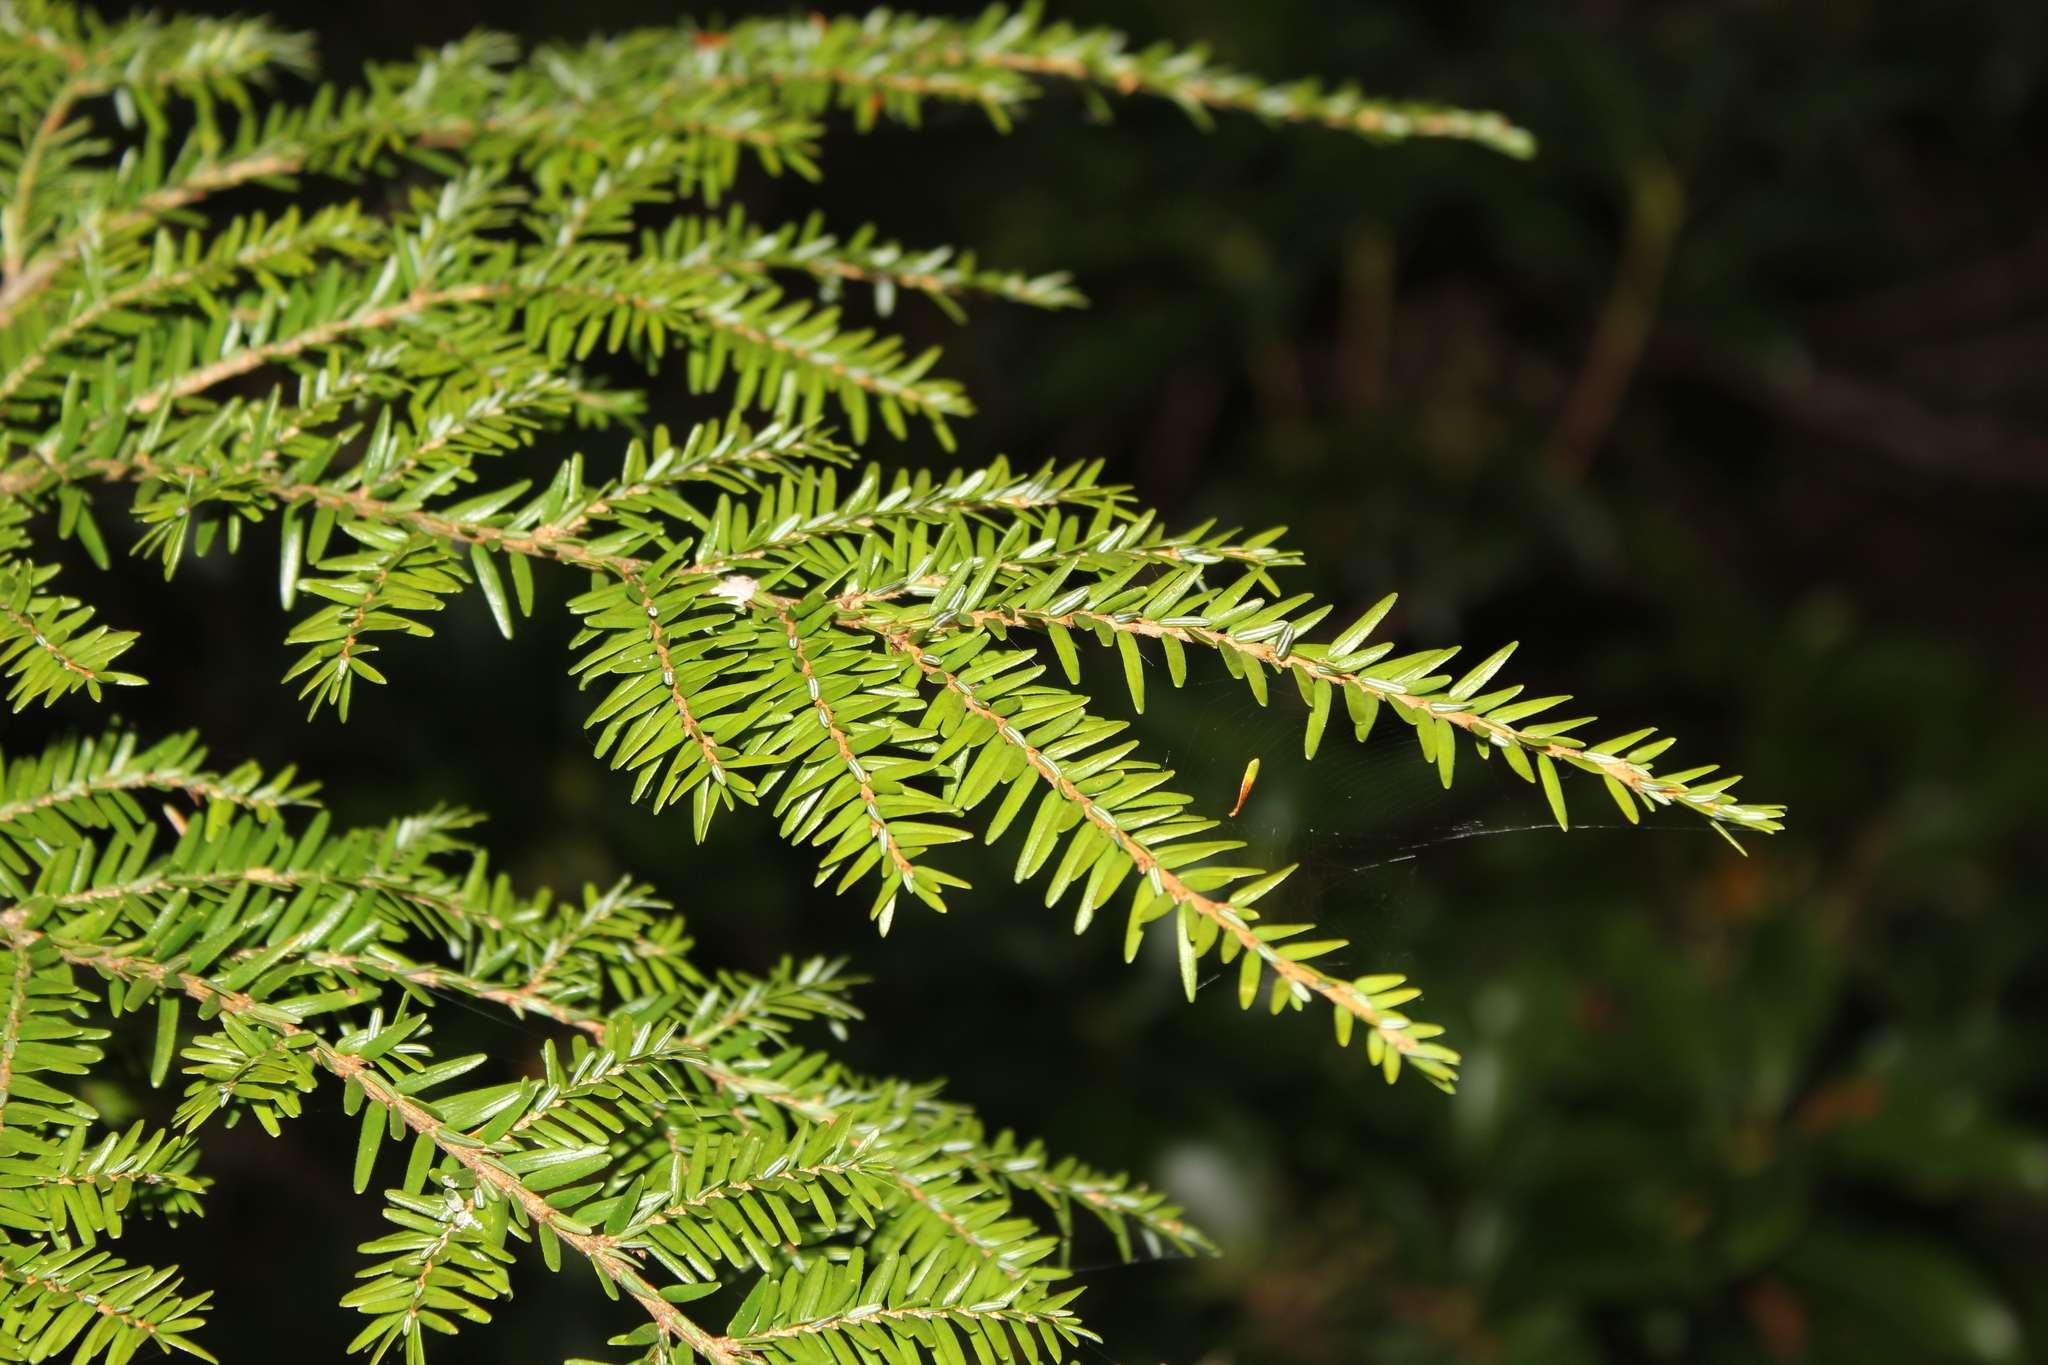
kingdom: Plantae
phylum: Tracheophyta
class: Pinopsida
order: Pinales
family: Pinaceae
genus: Tsuga
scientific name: Tsuga canadensis
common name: Eastern hemlock
